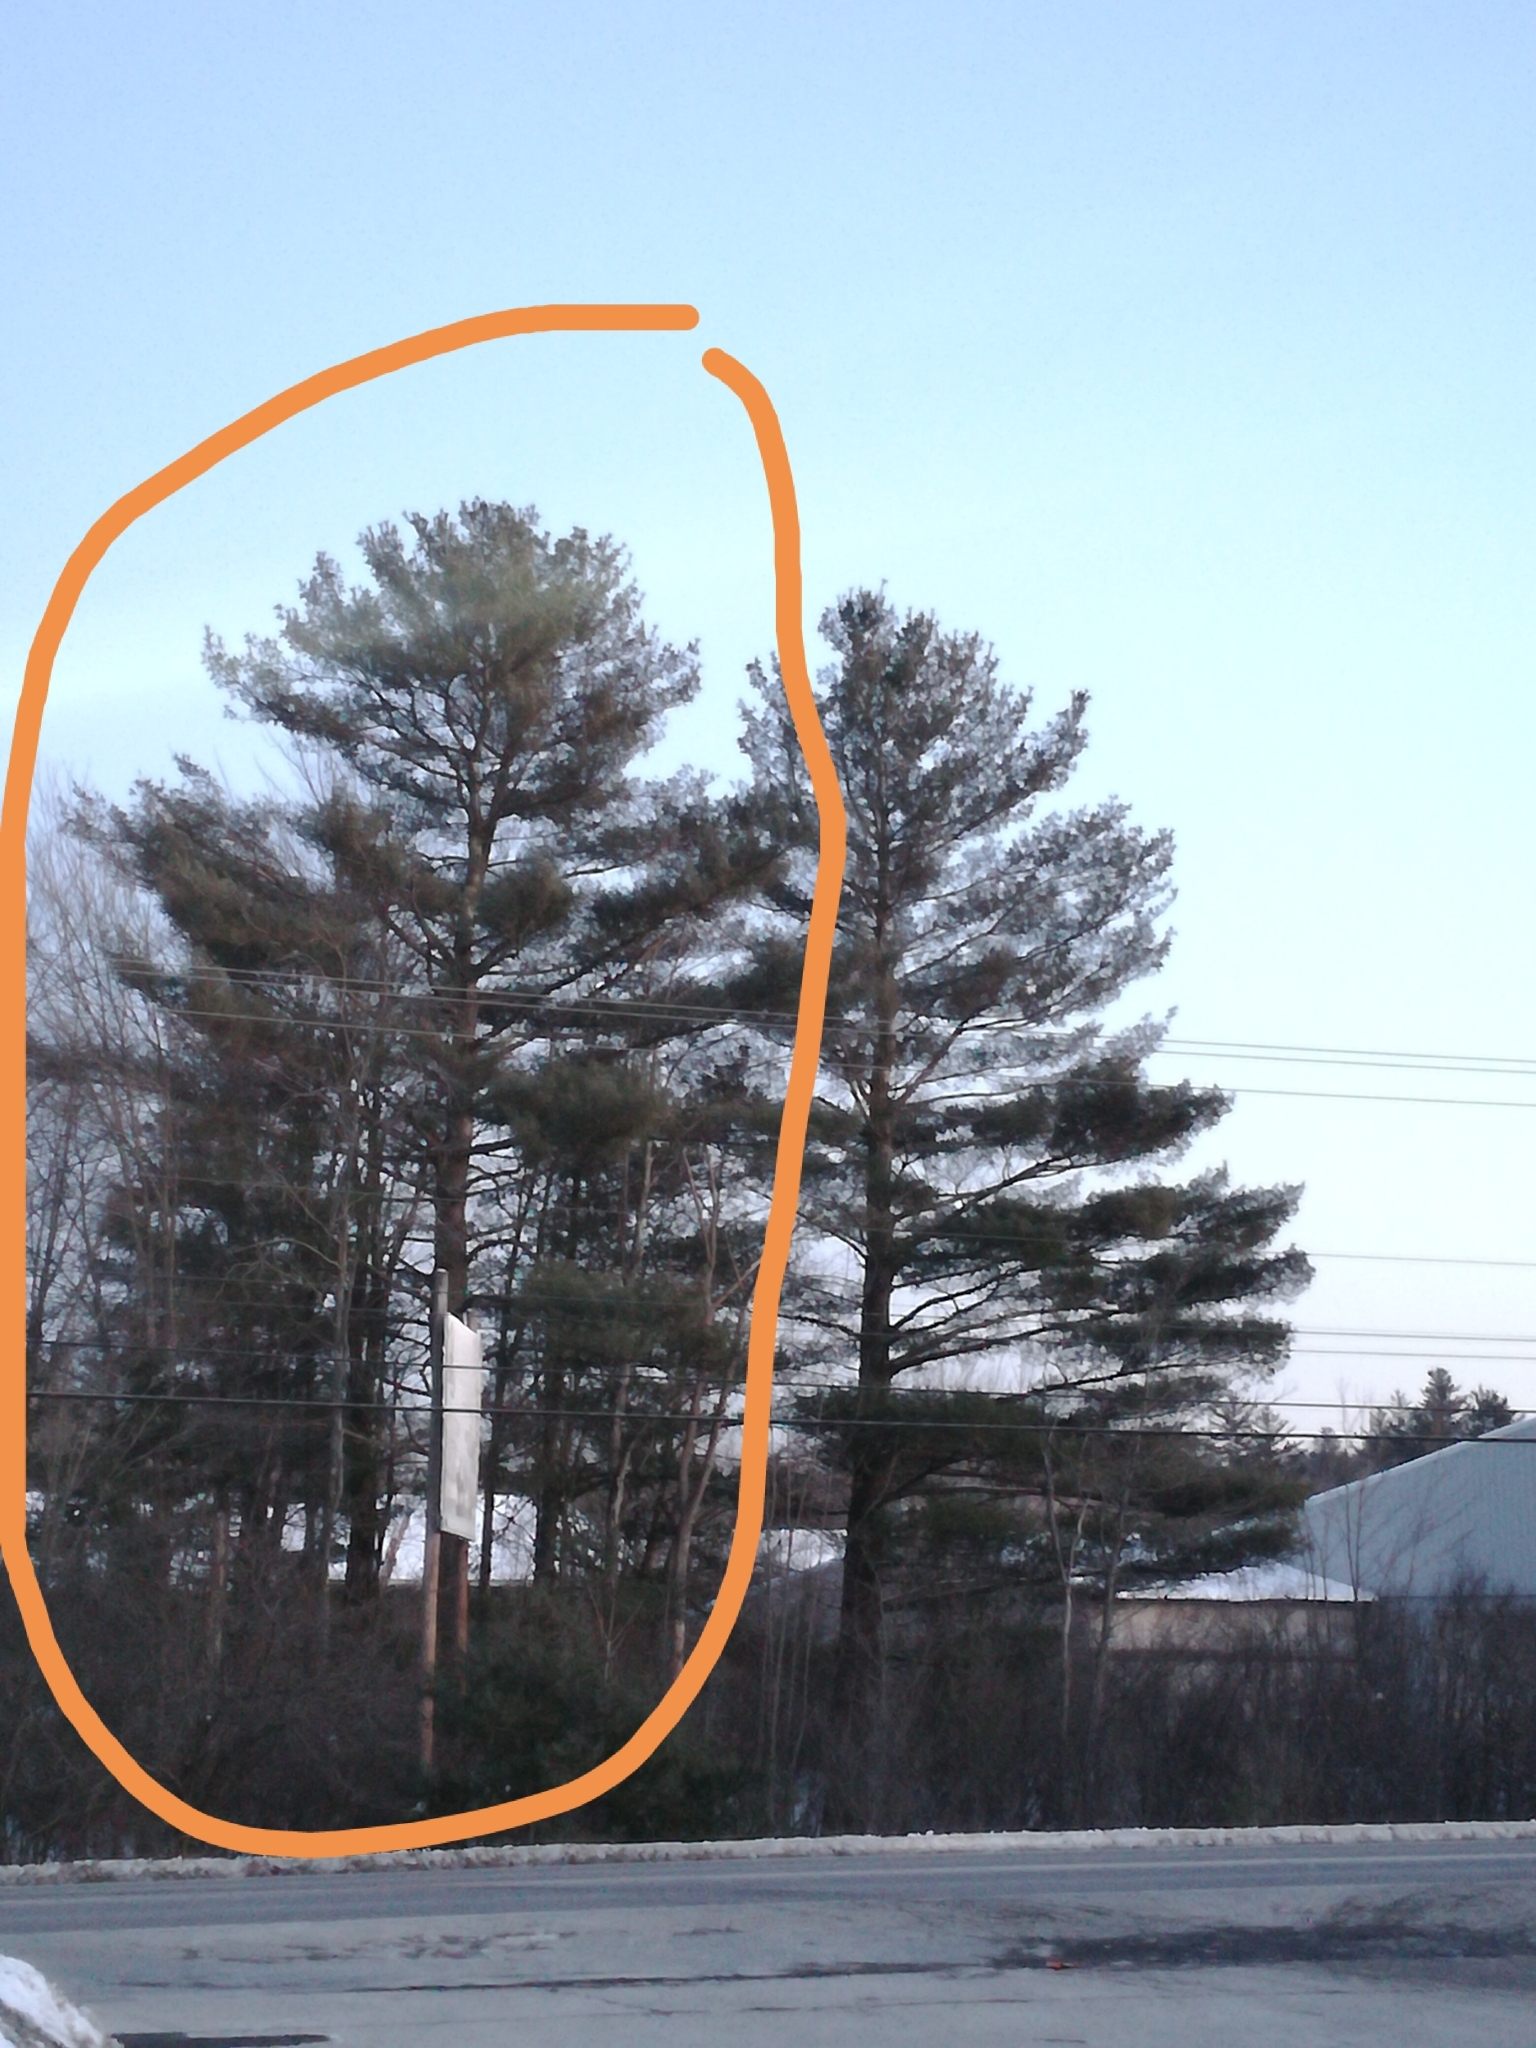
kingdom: Plantae
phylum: Tracheophyta
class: Pinopsida
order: Pinales
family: Pinaceae
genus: Pinus
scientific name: Pinus strobus
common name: Weymouth pine
